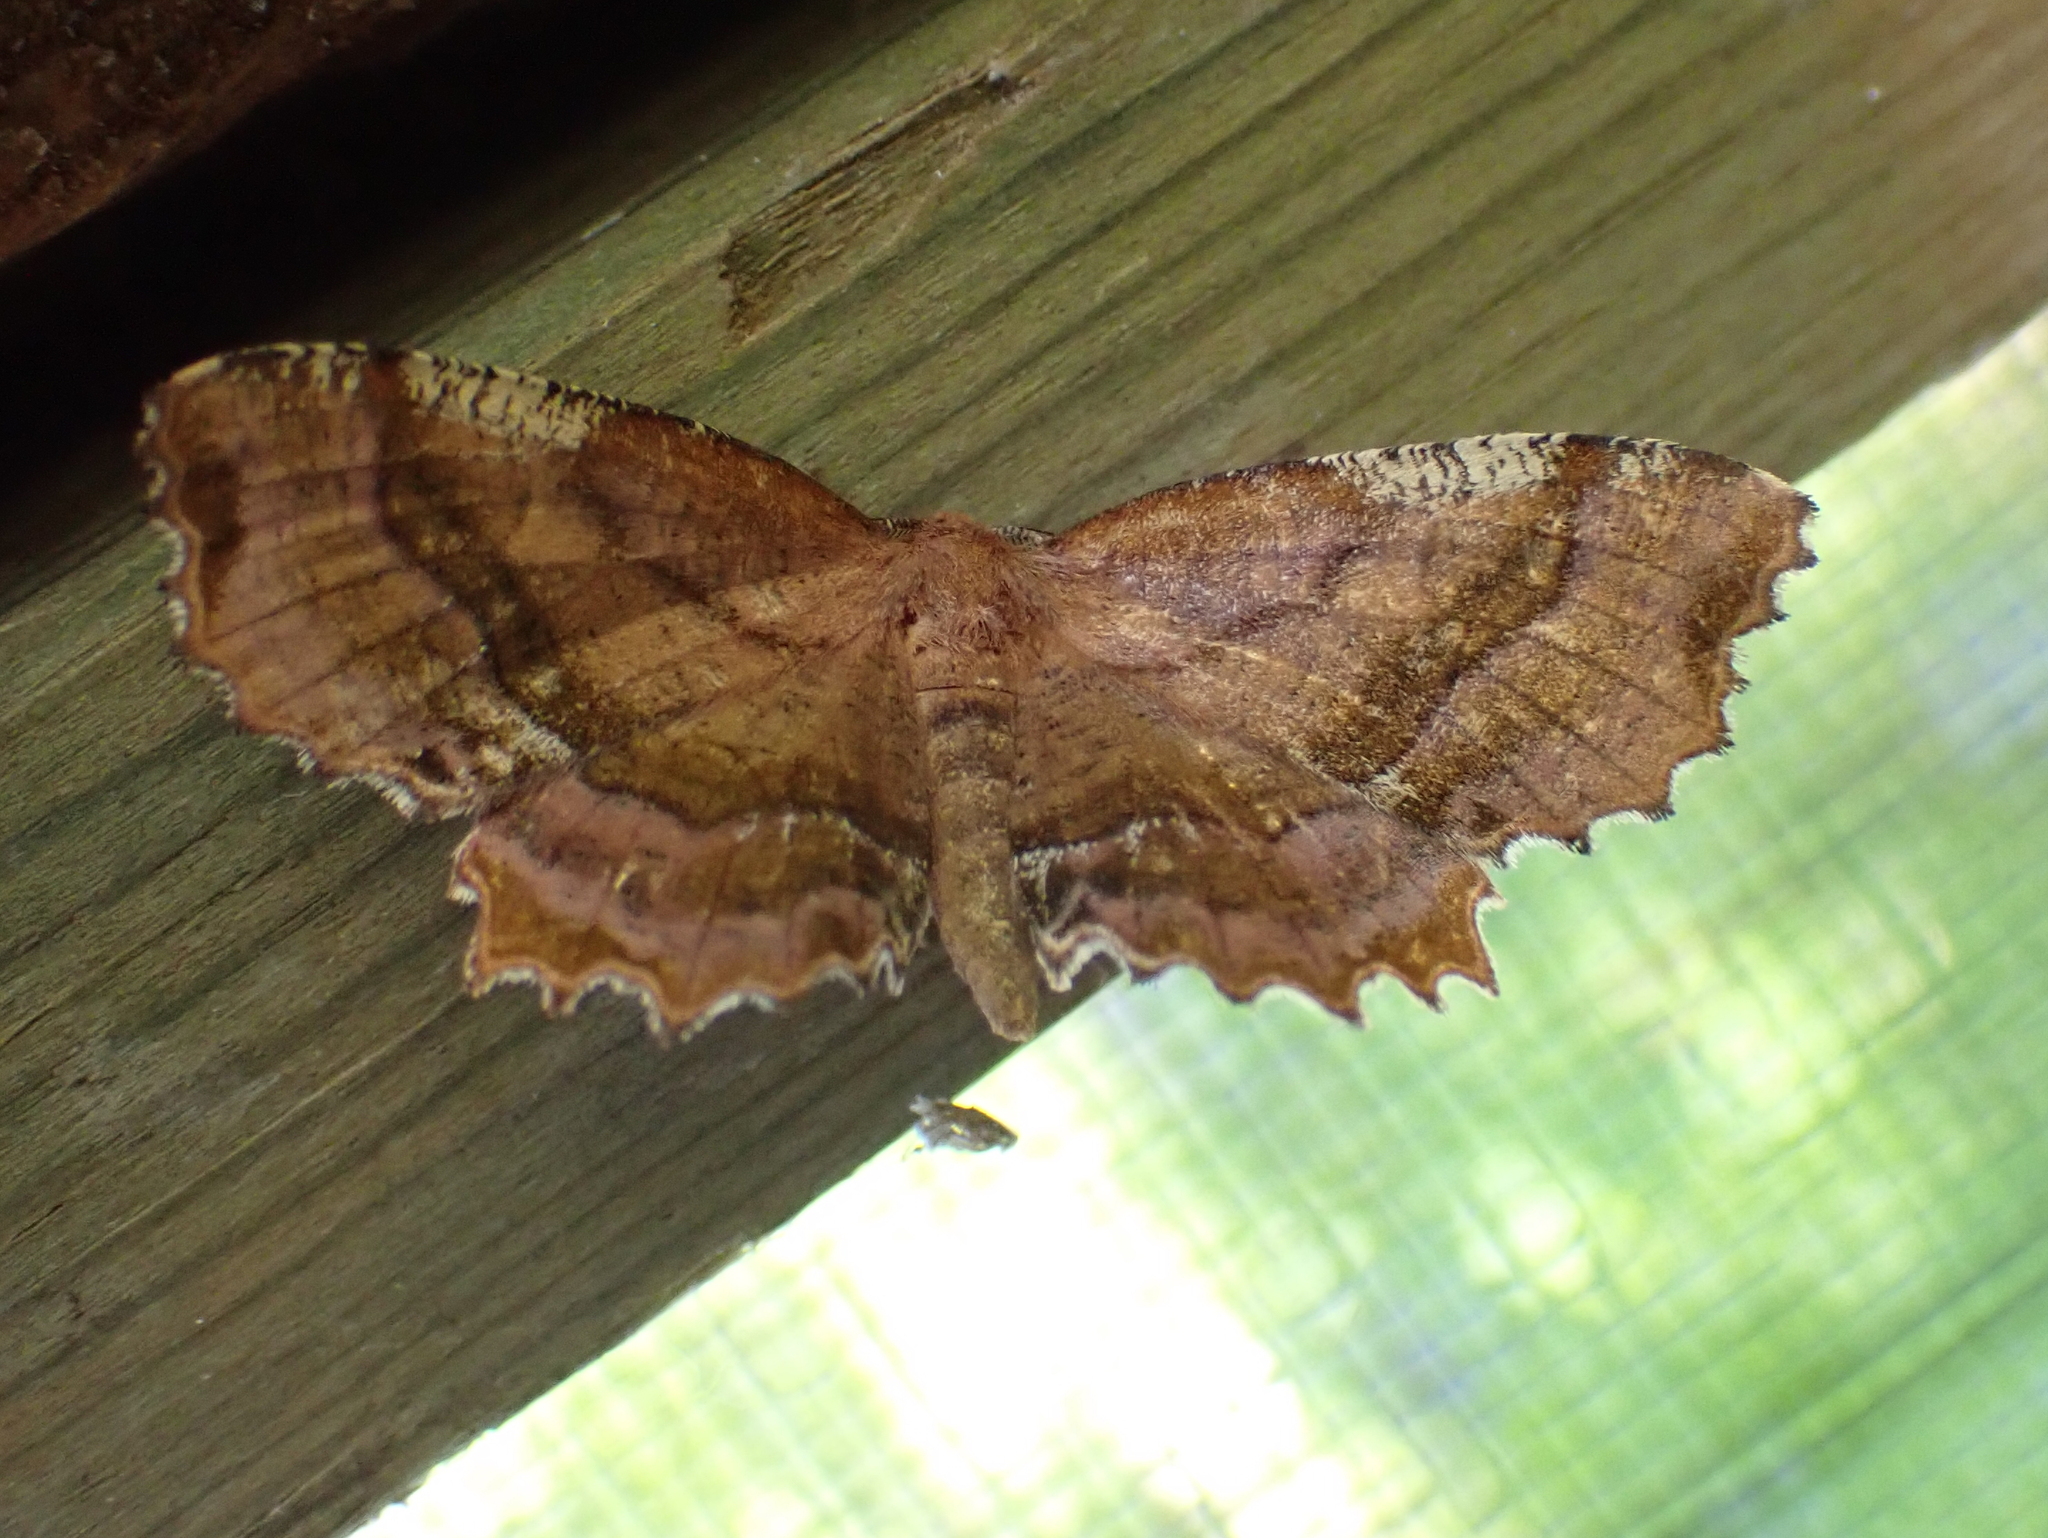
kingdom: Animalia
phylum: Arthropoda
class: Insecta
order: Lepidoptera
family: Geometridae
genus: Cepphis
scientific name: Cepphis armataria
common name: Scallop moth
